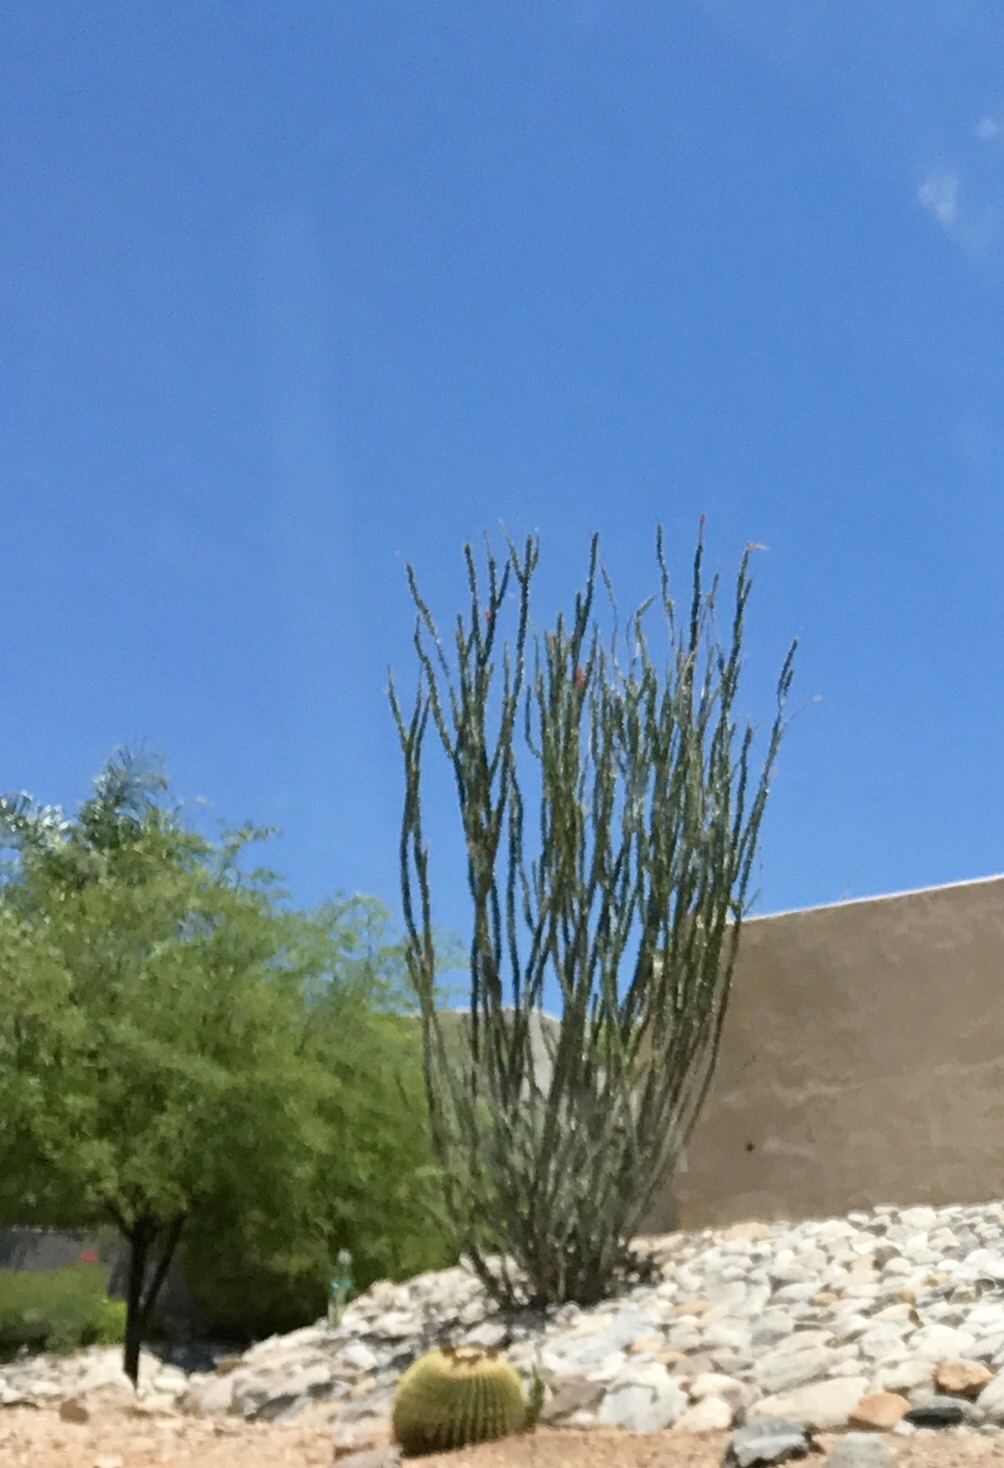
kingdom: Plantae
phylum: Tracheophyta
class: Magnoliopsida
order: Ericales
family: Fouquieriaceae
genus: Fouquieria
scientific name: Fouquieria splendens
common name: Vine-cactus
